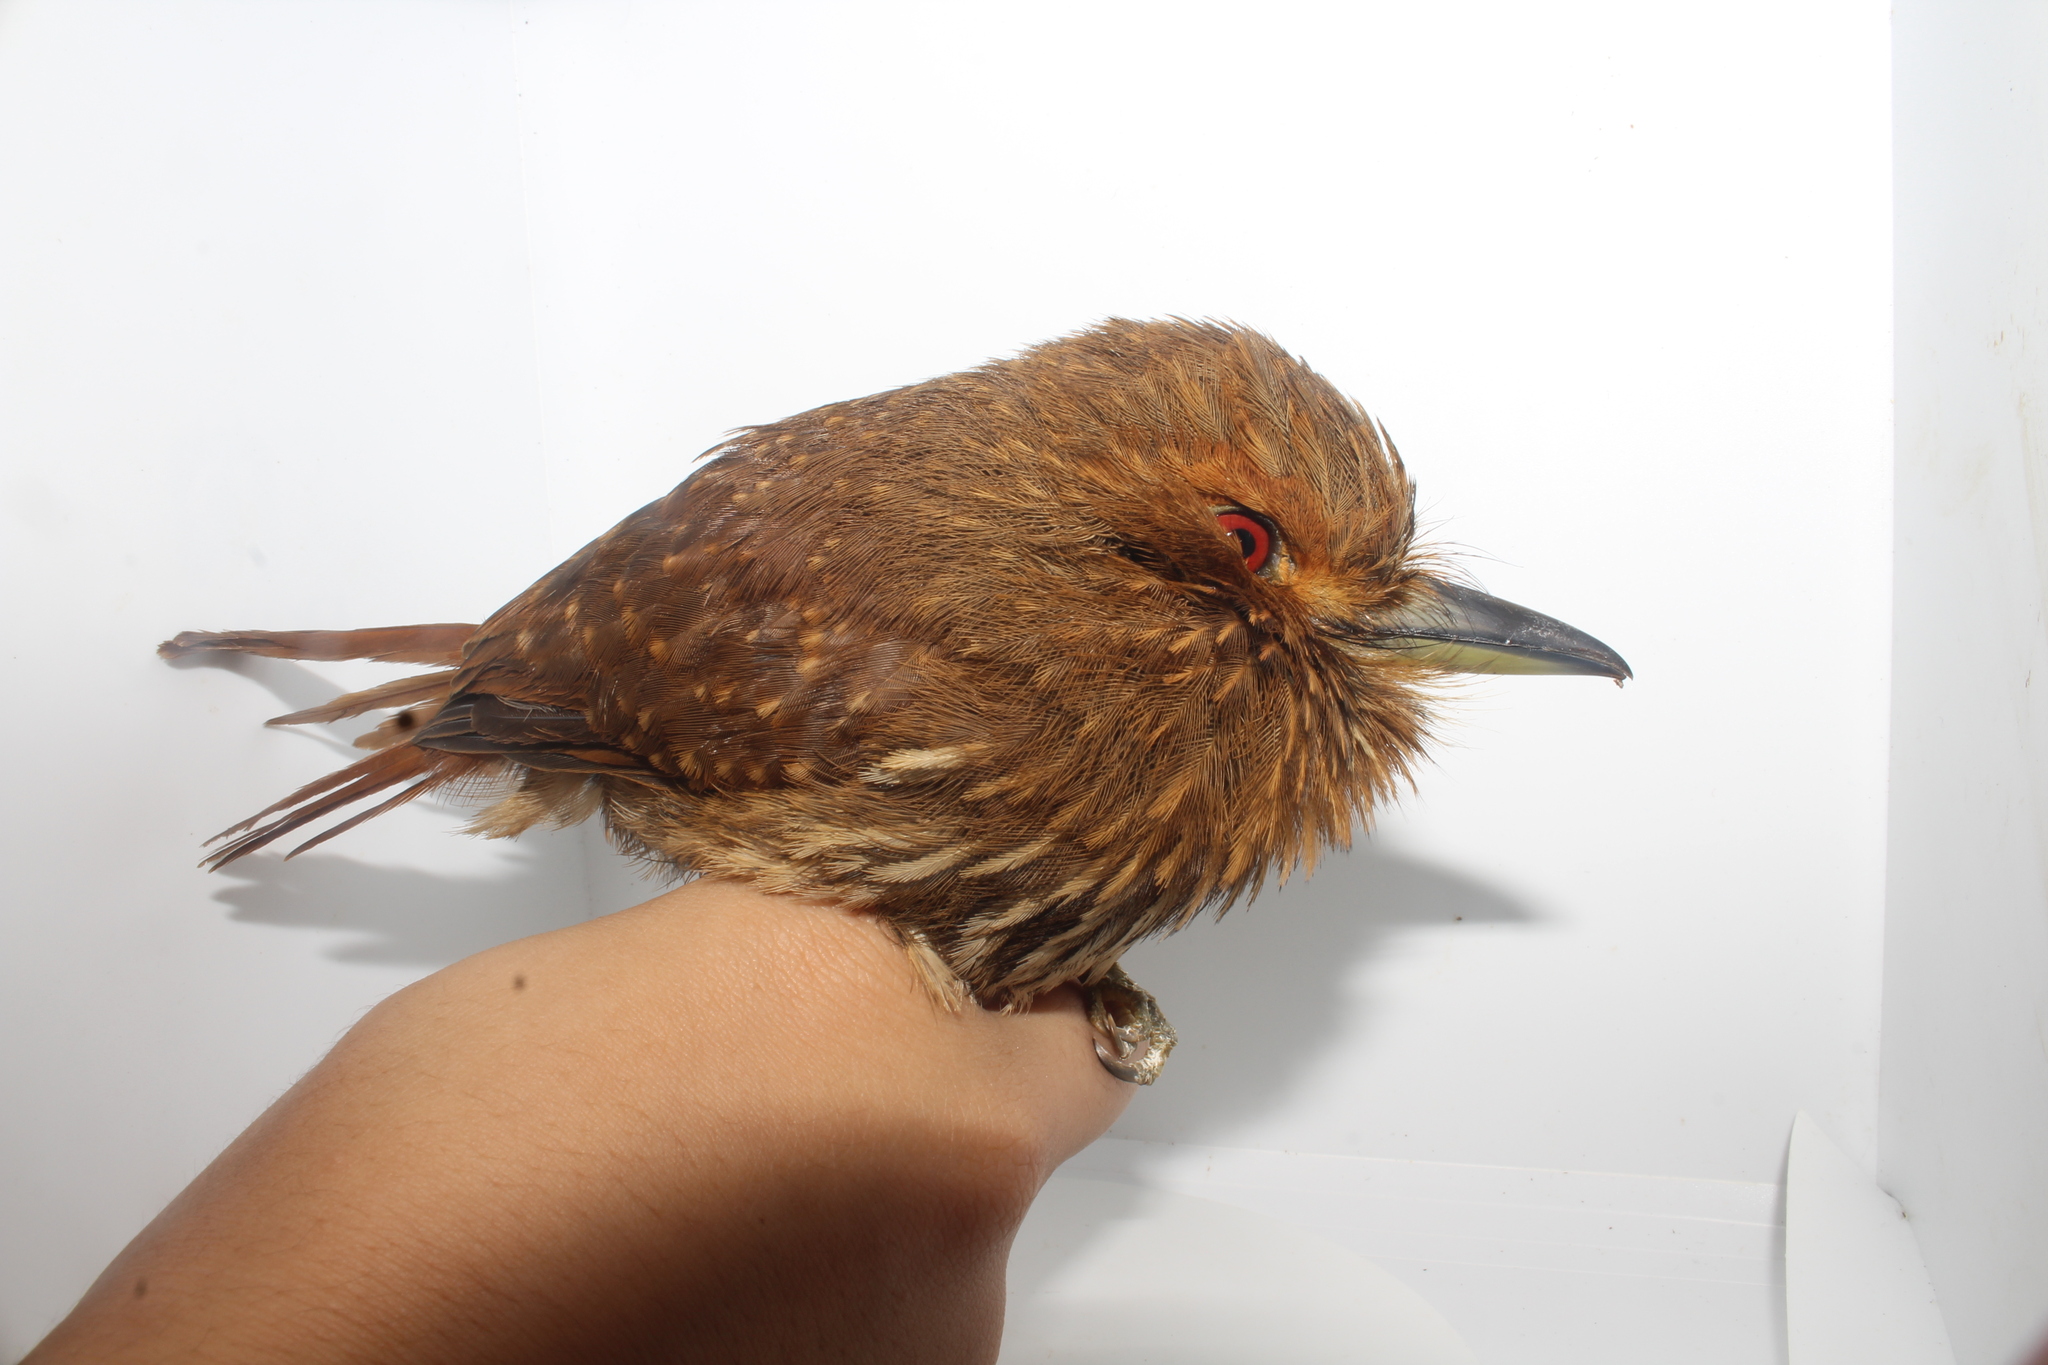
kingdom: Animalia
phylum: Chordata
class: Aves
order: Piciformes
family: Bucconidae
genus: Malacoptila
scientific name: Malacoptila panamensis
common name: White-whiskered puffbird
